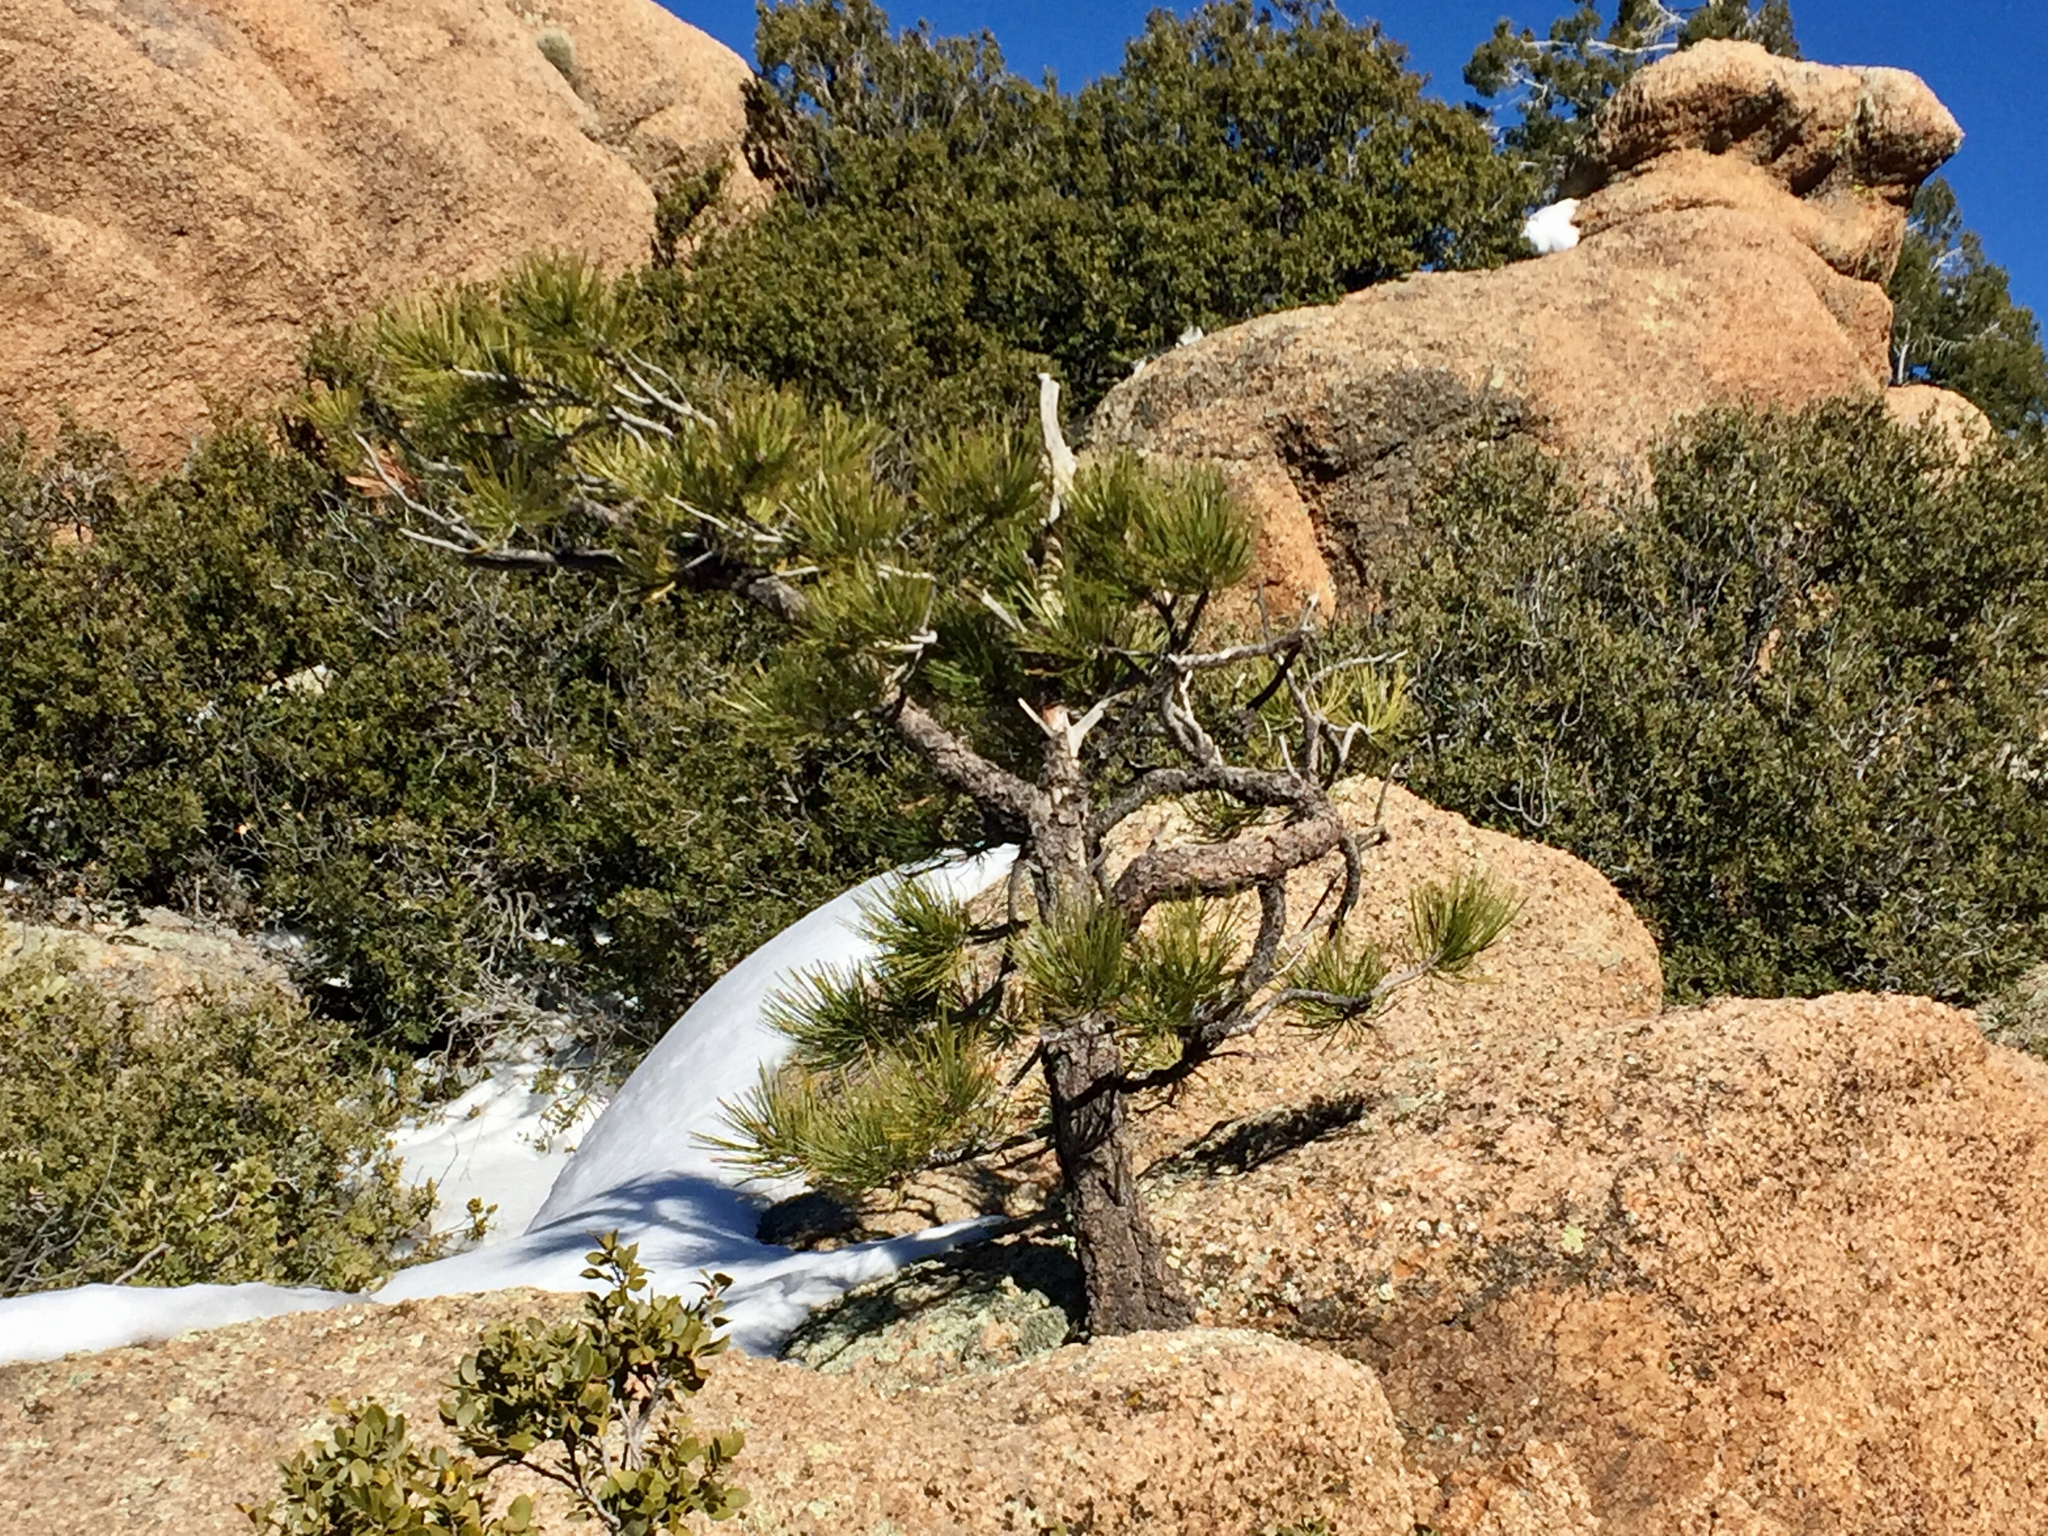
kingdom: Plantae
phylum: Tracheophyta
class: Pinopsida
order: Pinales
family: Pinaceae
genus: Pinus
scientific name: Pinus ponderosa
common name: Western yellow-pine
